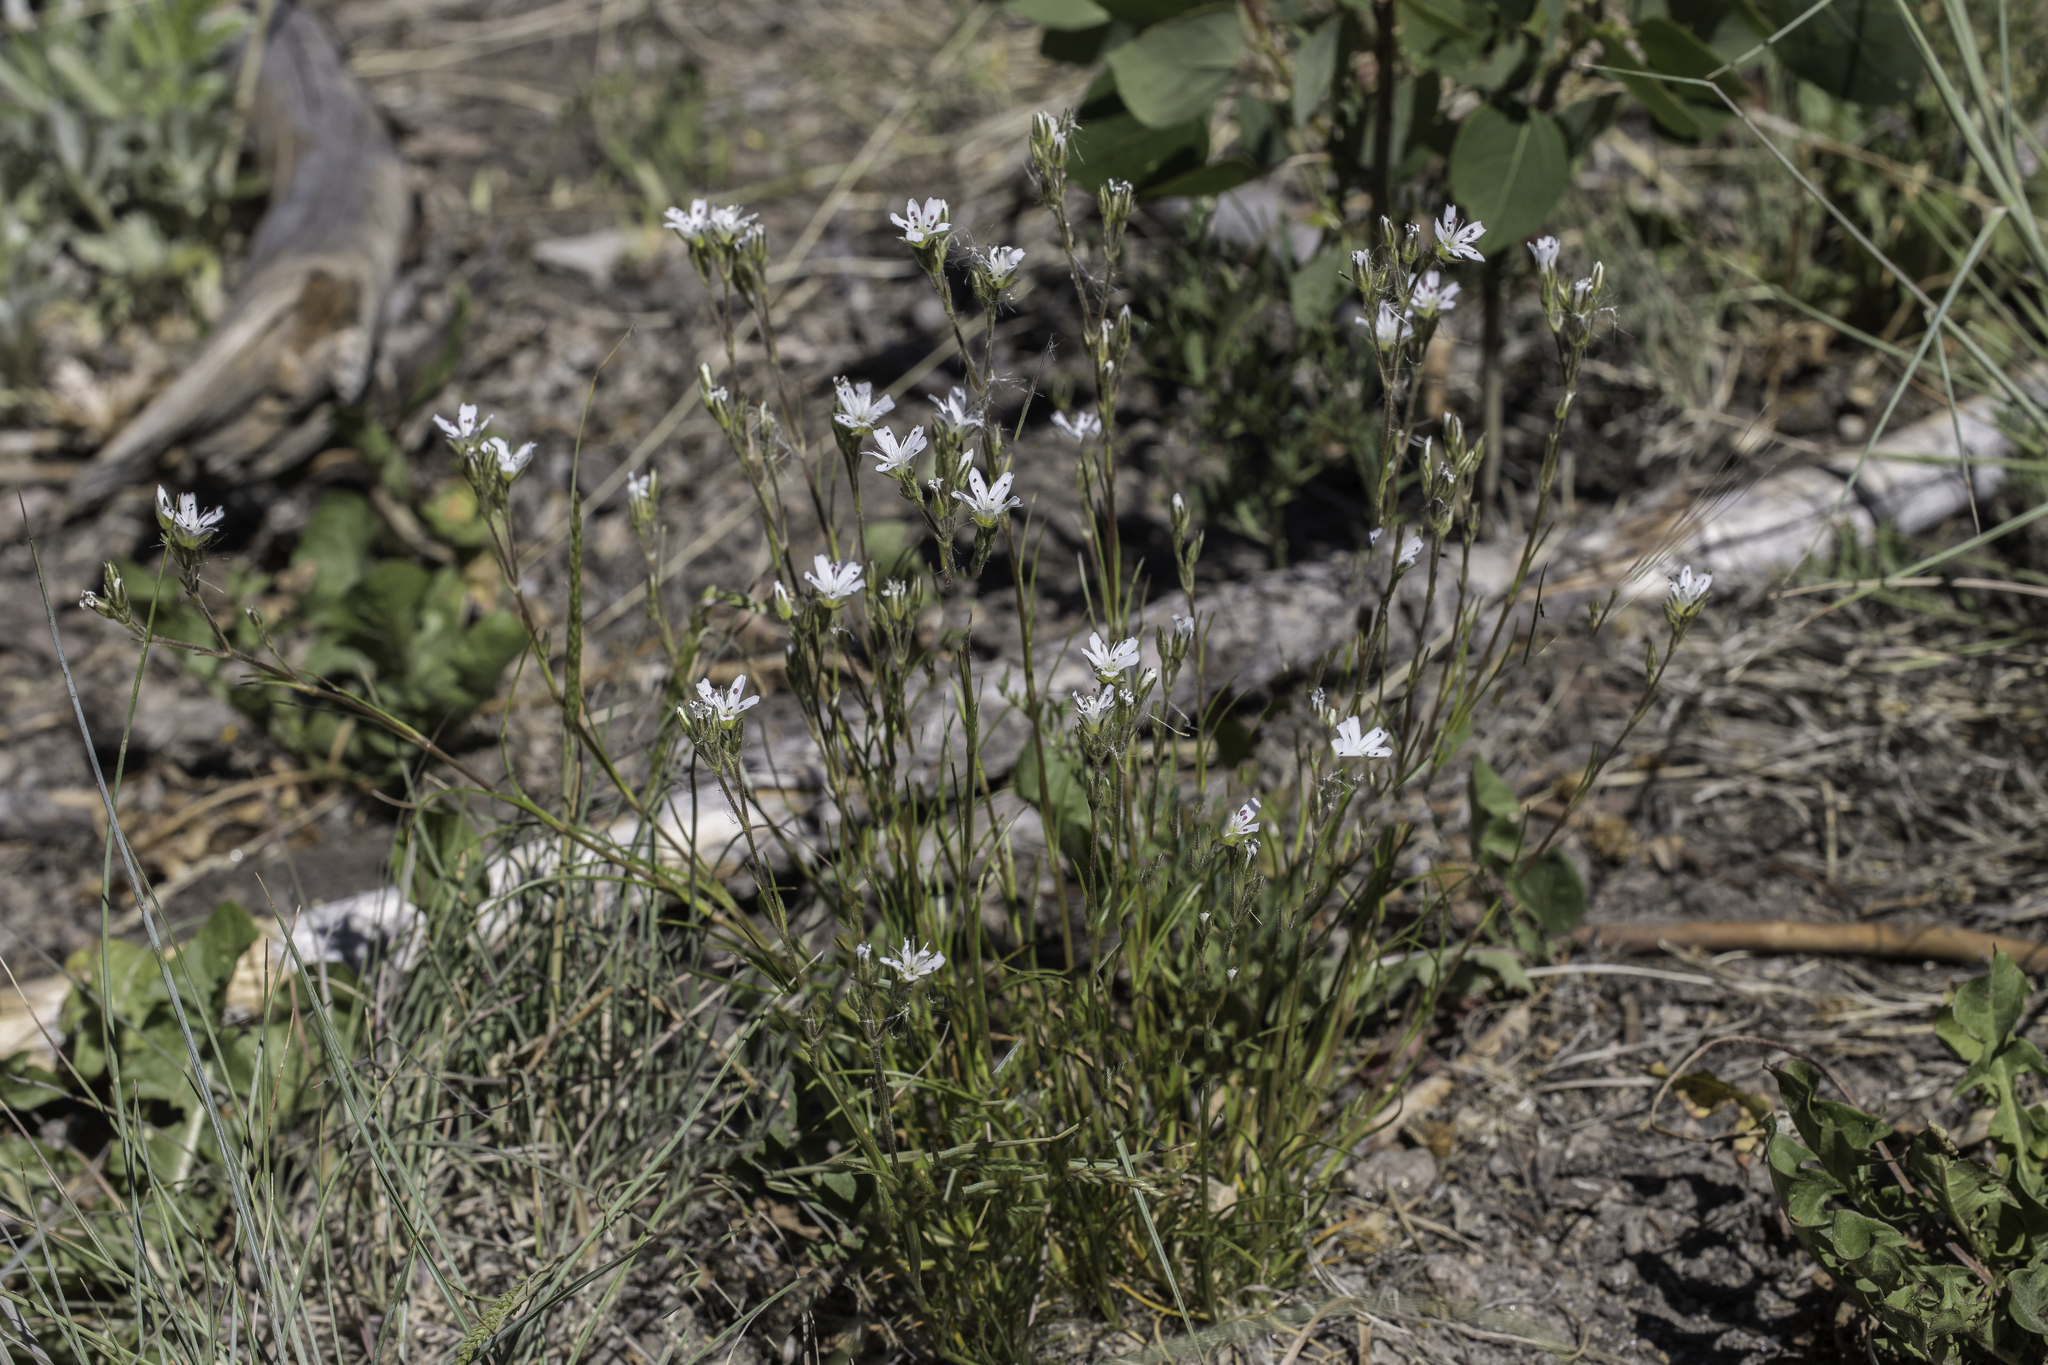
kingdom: Plantae
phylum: Tracheophyta
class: Magnoliopsida
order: Caryophyllales
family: Caryophyllaceae
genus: Eremogone
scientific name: Eremogone fendleri
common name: Fendler's sandwort
